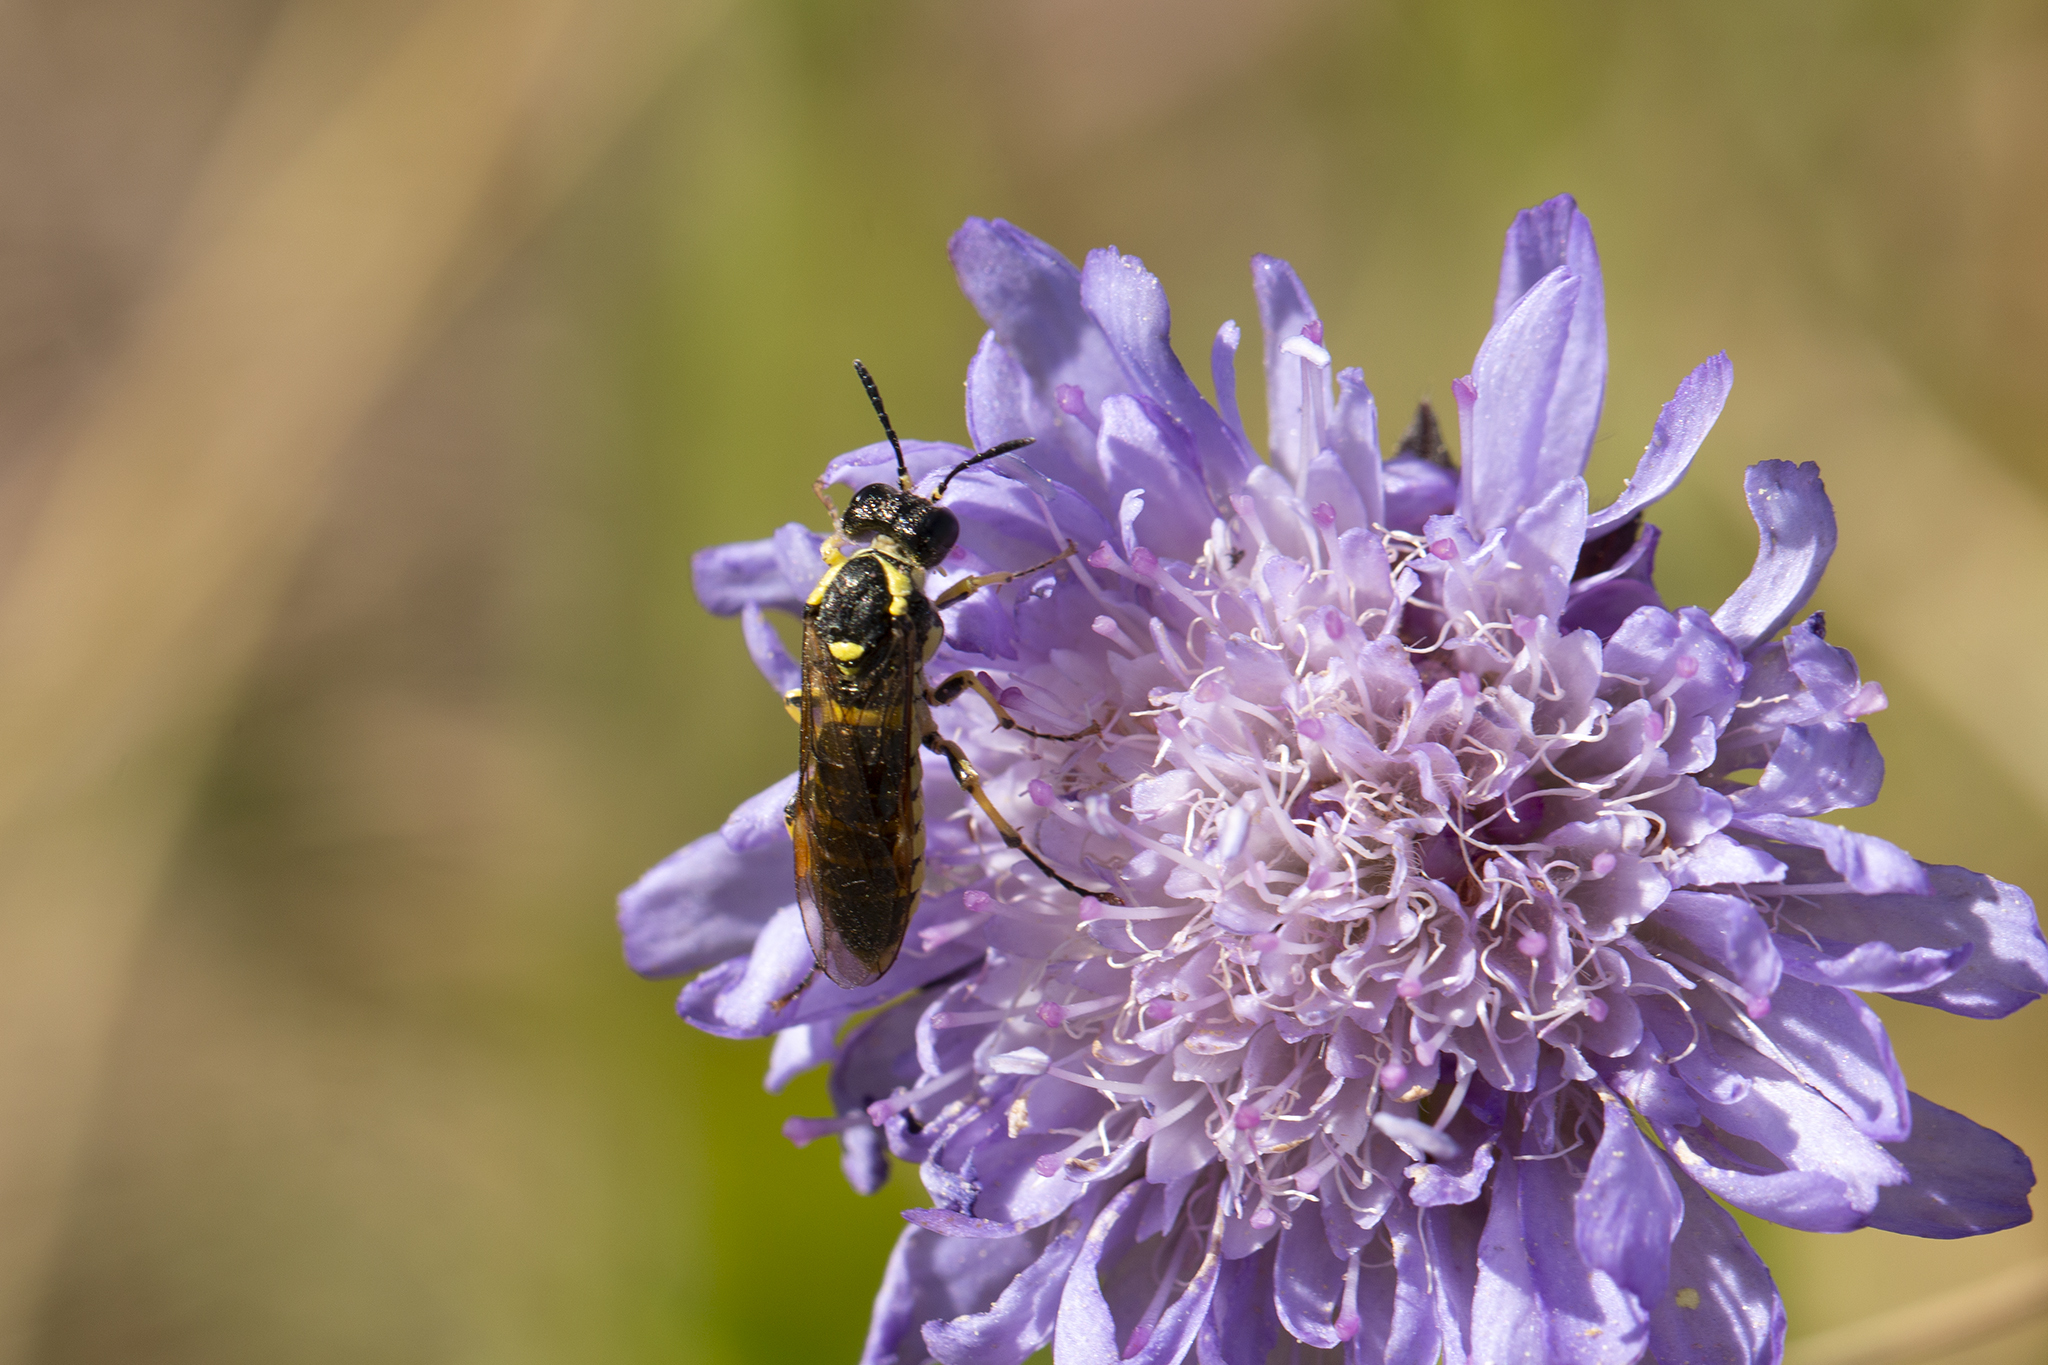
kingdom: Animalia
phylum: Arthropoda
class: Insecta
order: Hymenoptera
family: Tenthredinidae
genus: Tenthredo
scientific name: Tenthredo notha
